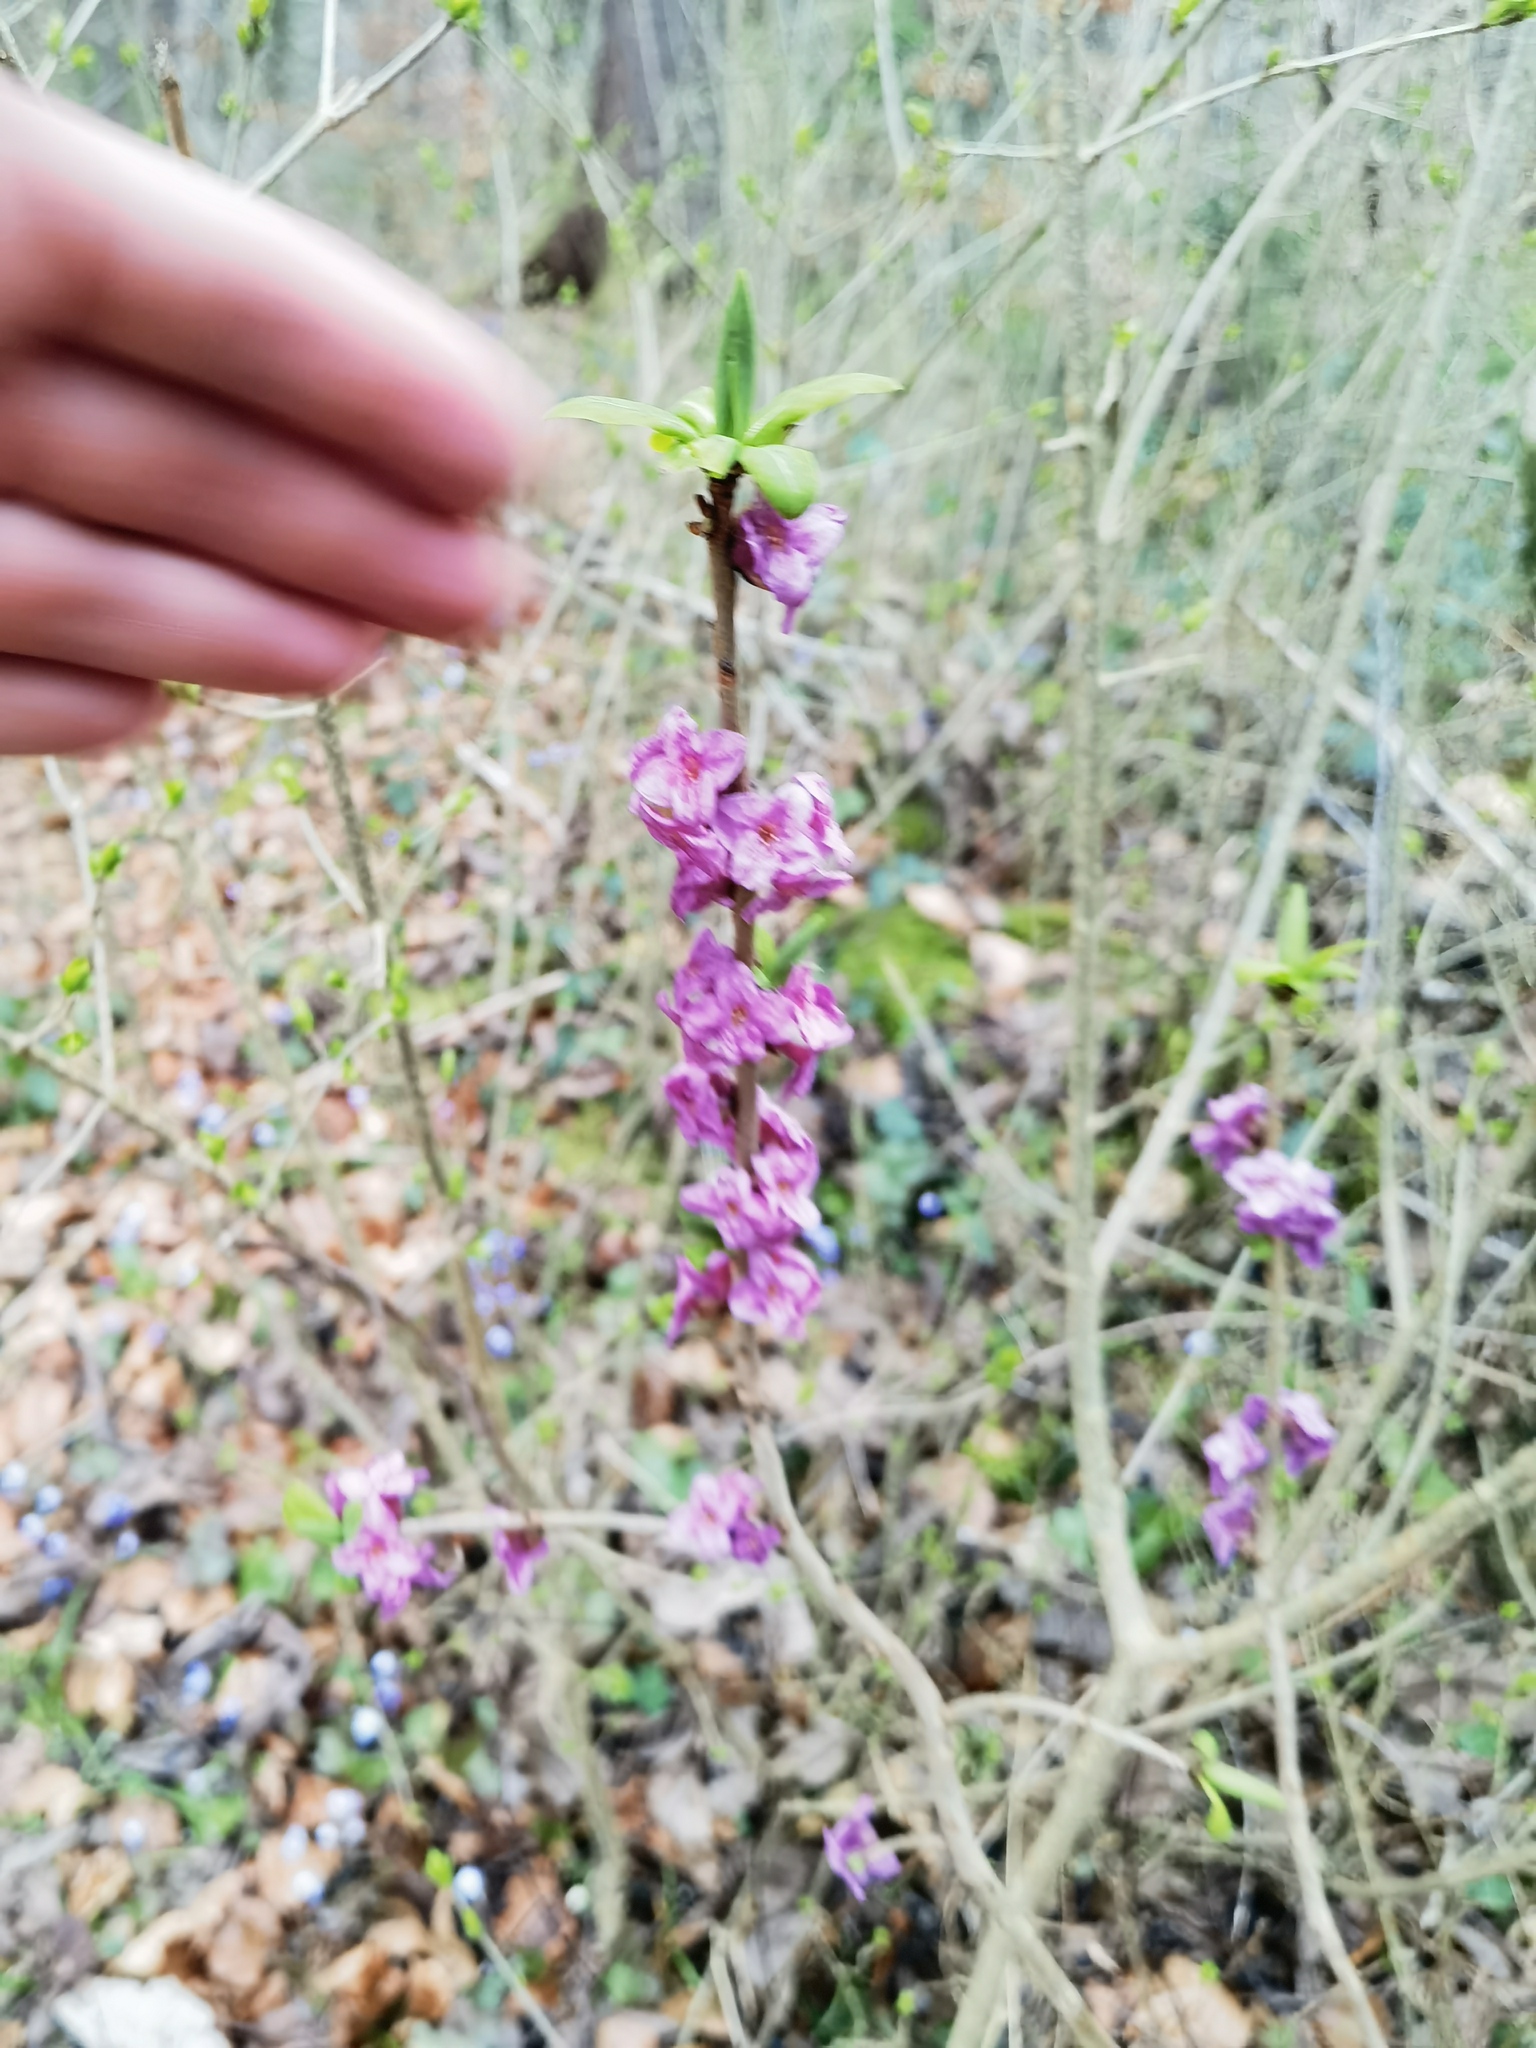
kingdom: Plantae
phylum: Tracheophyta
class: Magnoliopsida
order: Malvales
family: Thymelaeaceae
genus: Daphne
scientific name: Daphne mezereum
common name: Mezereon
